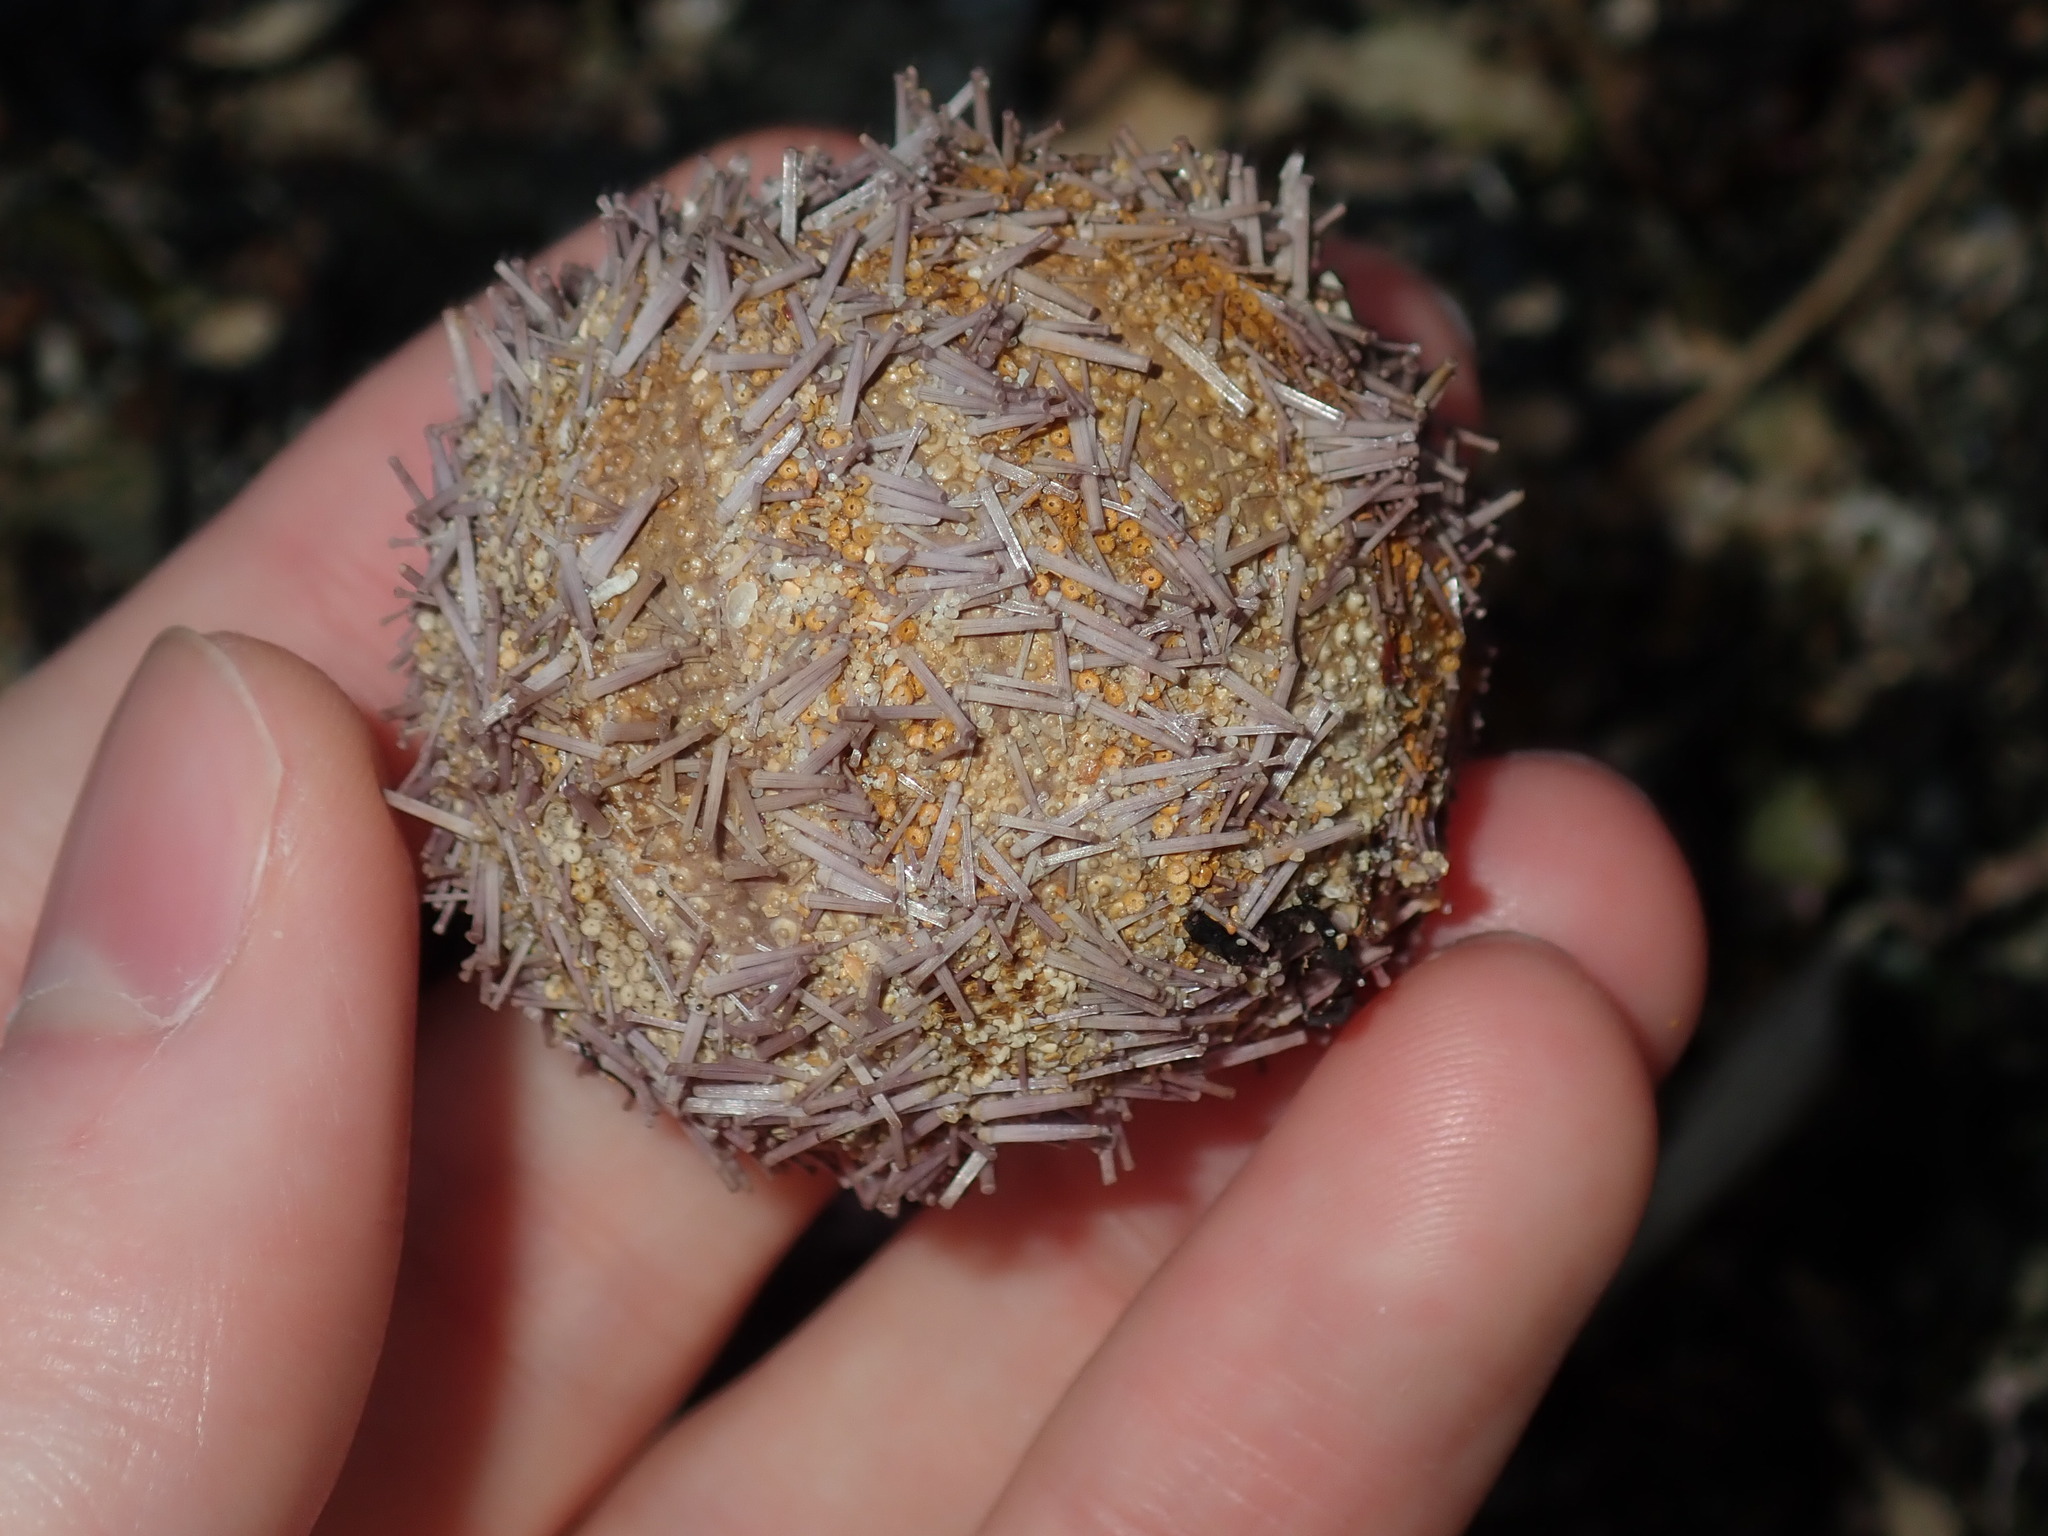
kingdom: Animalia
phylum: Echinodermata
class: Echinoidea
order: Camarodonta
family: Temnopleuridae
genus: Holopneustes
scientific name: Holopneustes purpurascens
